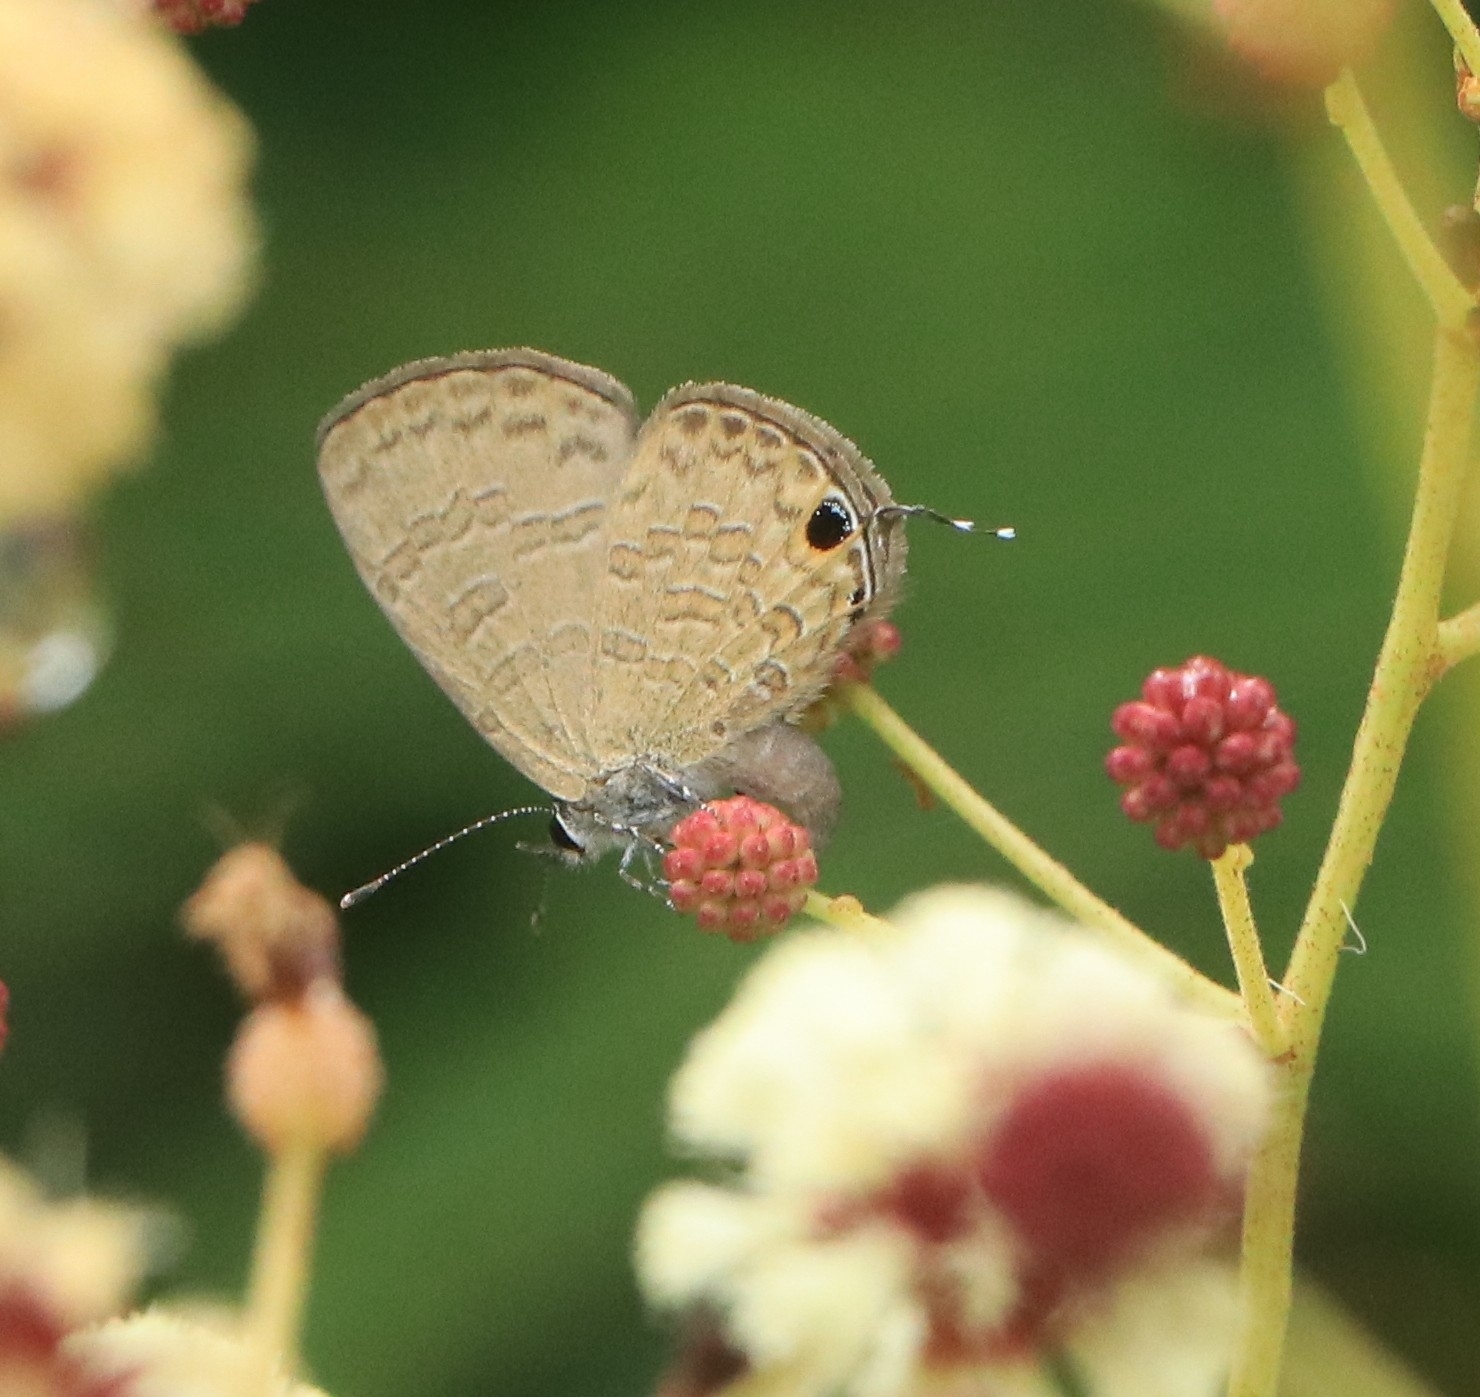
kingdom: Animalia
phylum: Arthropoda
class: Insecta
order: Lepidoptera
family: Lycaenidae
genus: Prosotas
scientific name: Prosotas nora
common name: Common line blue
